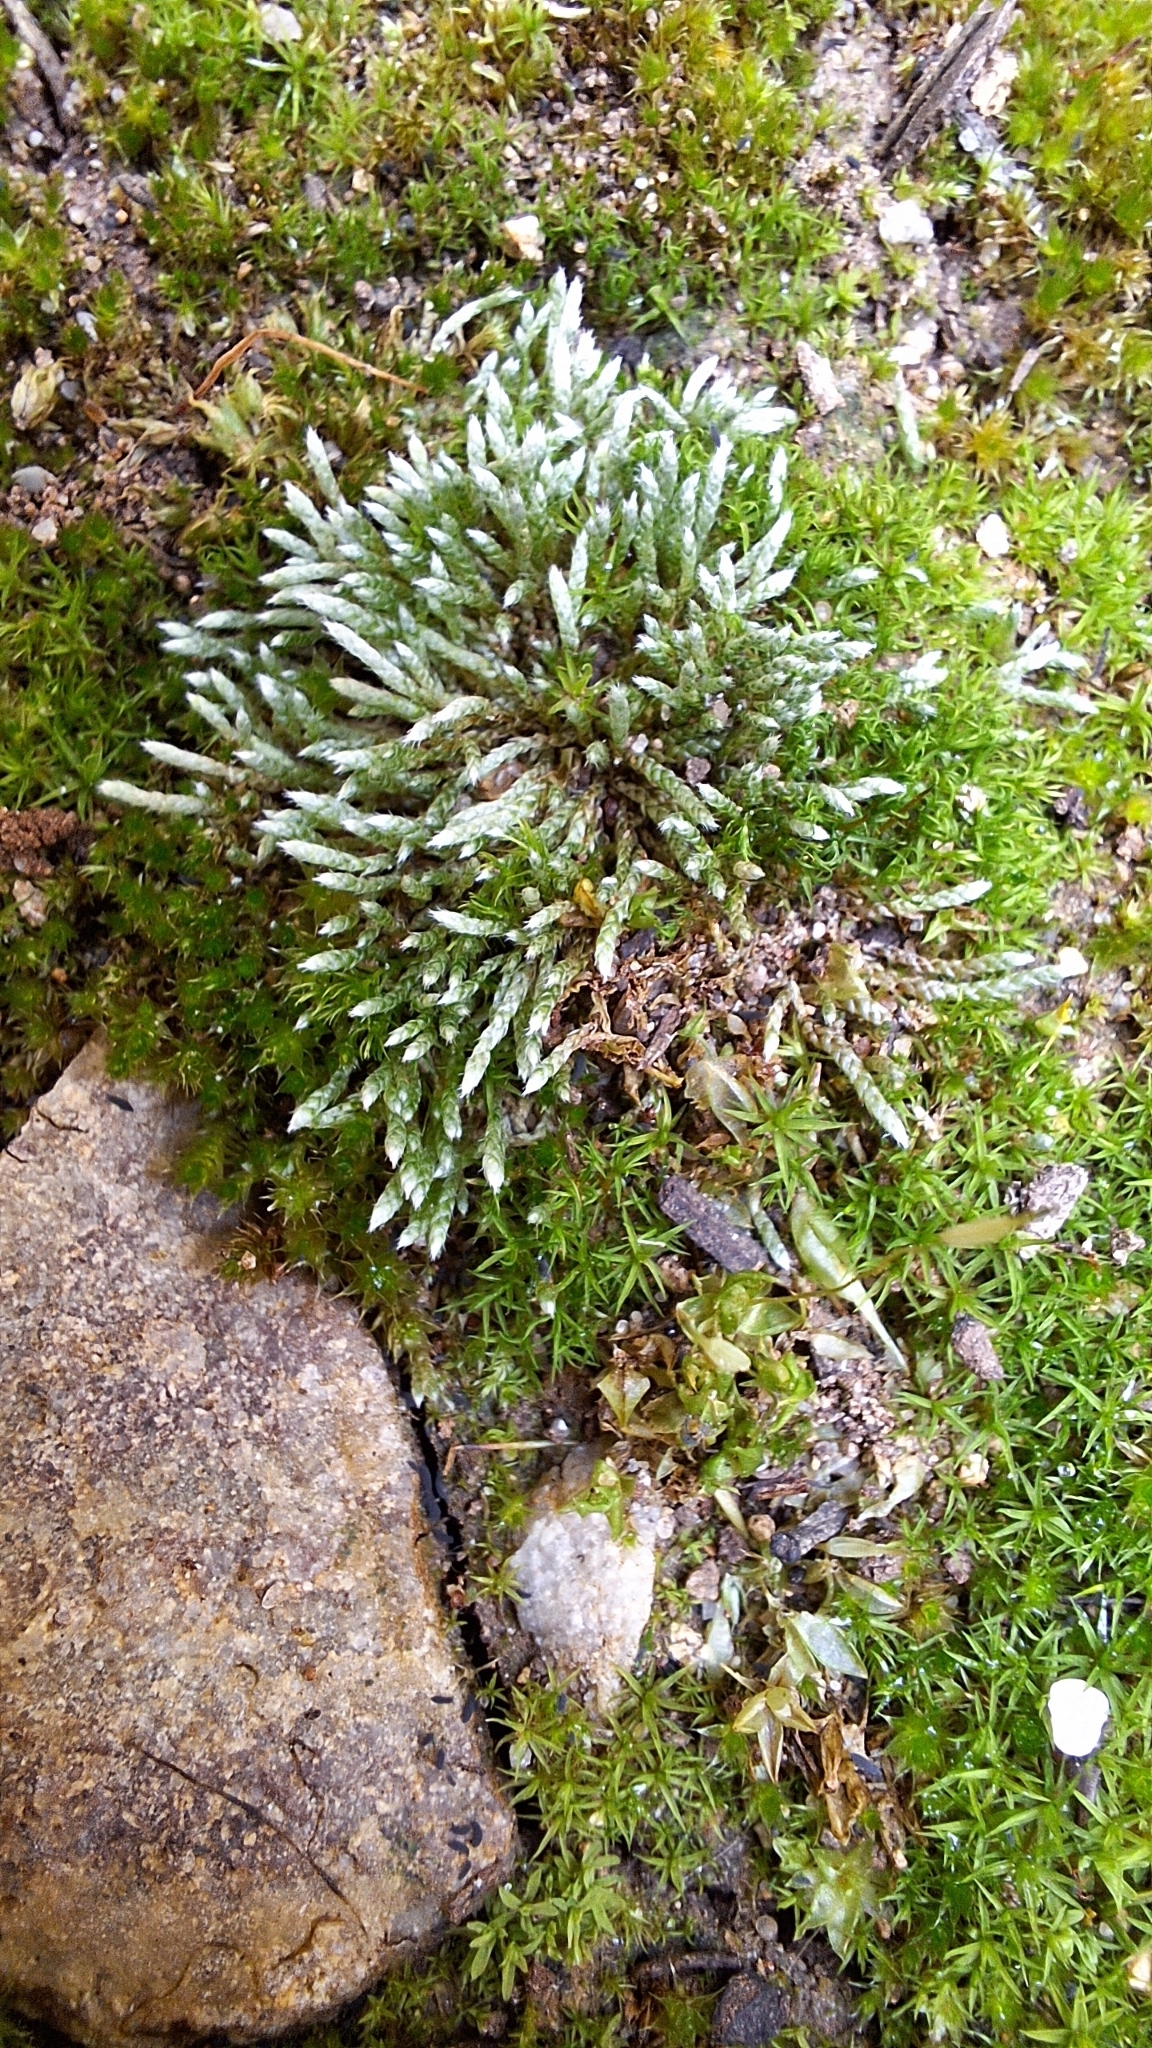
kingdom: Plantae
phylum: Bryophyta
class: Bryopsida
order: Bryales
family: Bryaceae
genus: Bryum
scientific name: Bryum argenteum
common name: Silver-moss
